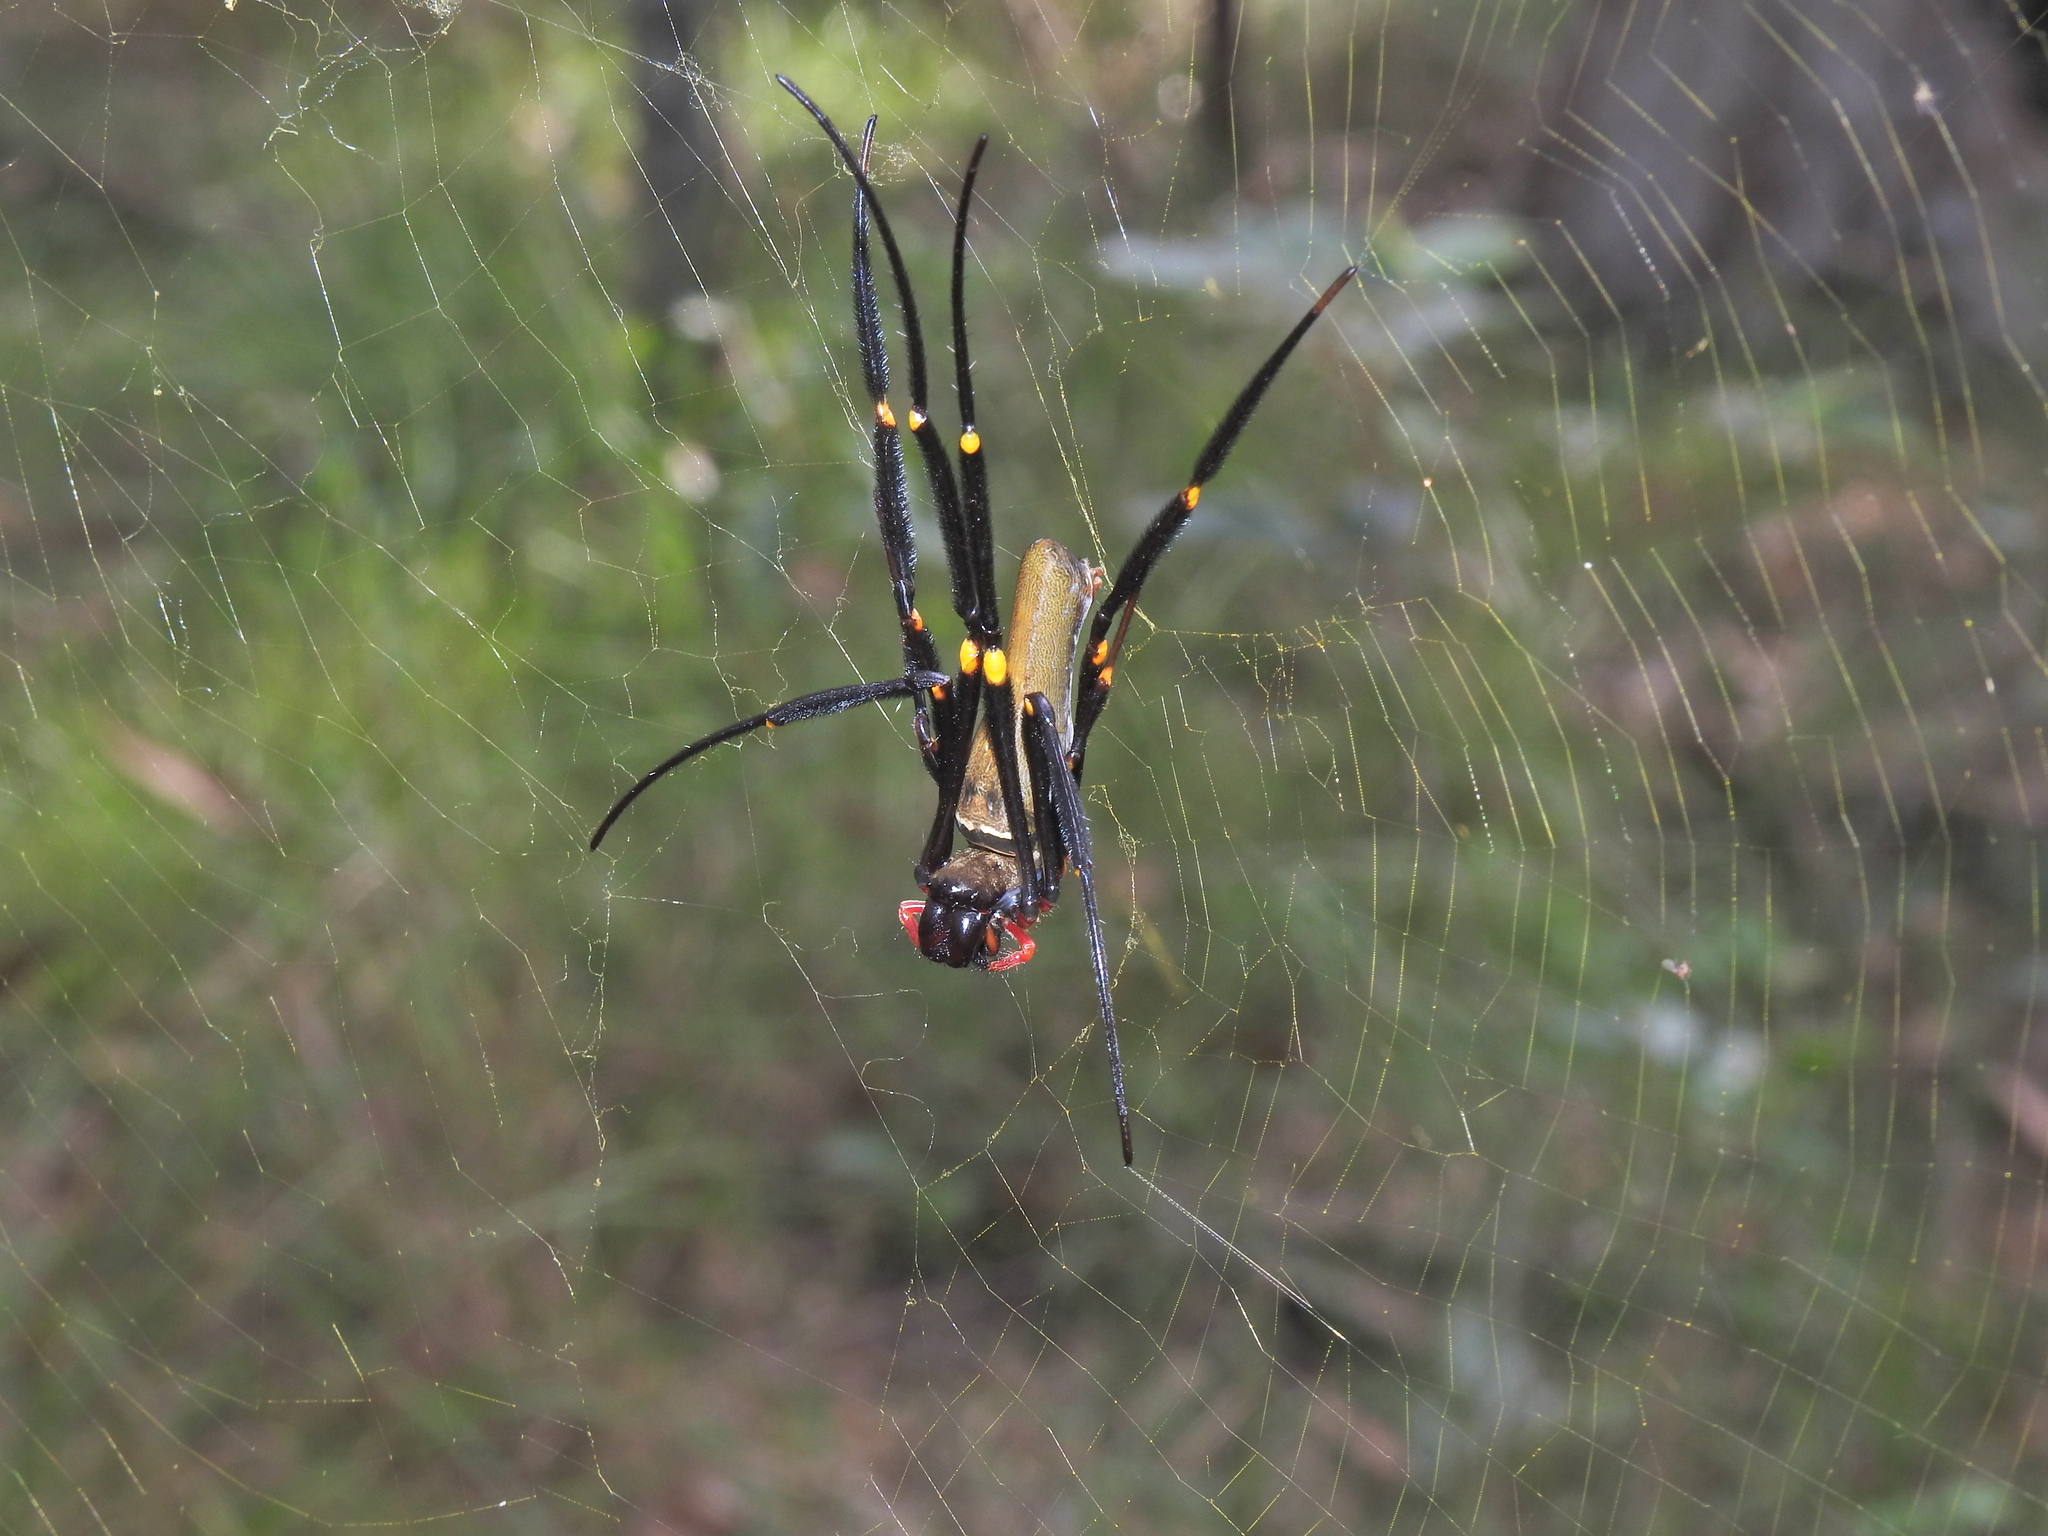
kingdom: Animalia
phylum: Arthropoda
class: Arachnida
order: Araneae
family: Araneidae
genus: Nephila
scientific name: Nephila pilipes
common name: Giant golden orb weaver
